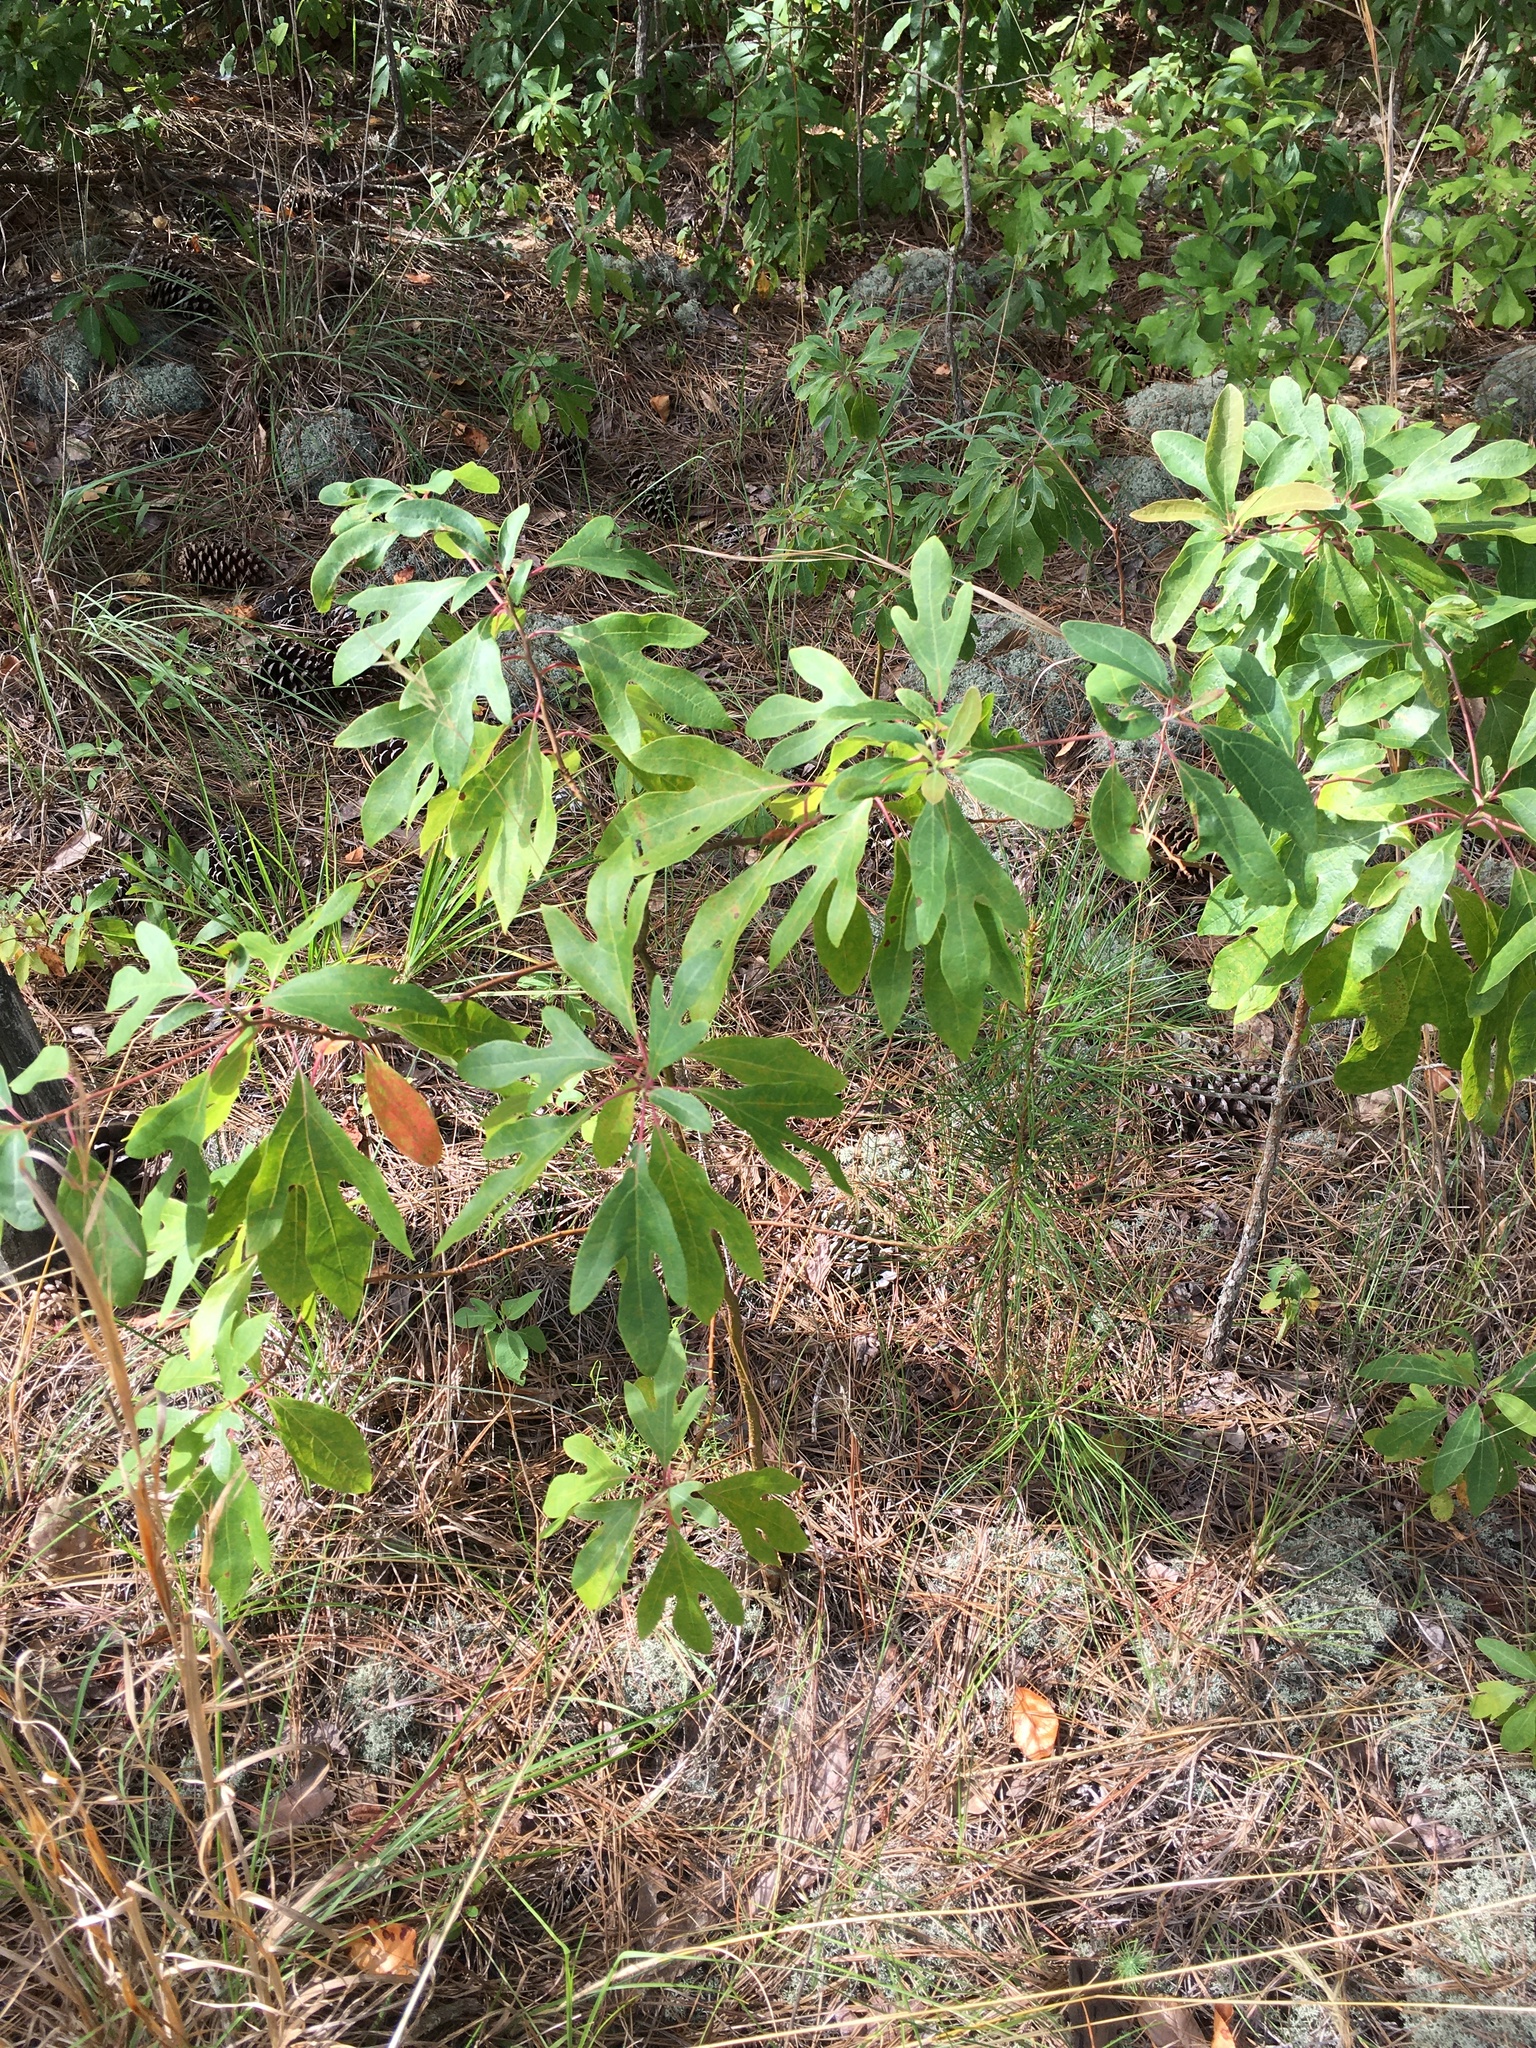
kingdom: Plantae
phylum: Tracheophyta
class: Magnoliopsida
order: Laurales
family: Lauraceae
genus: Sassafras
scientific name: Sassafras albidum
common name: Sassafras
